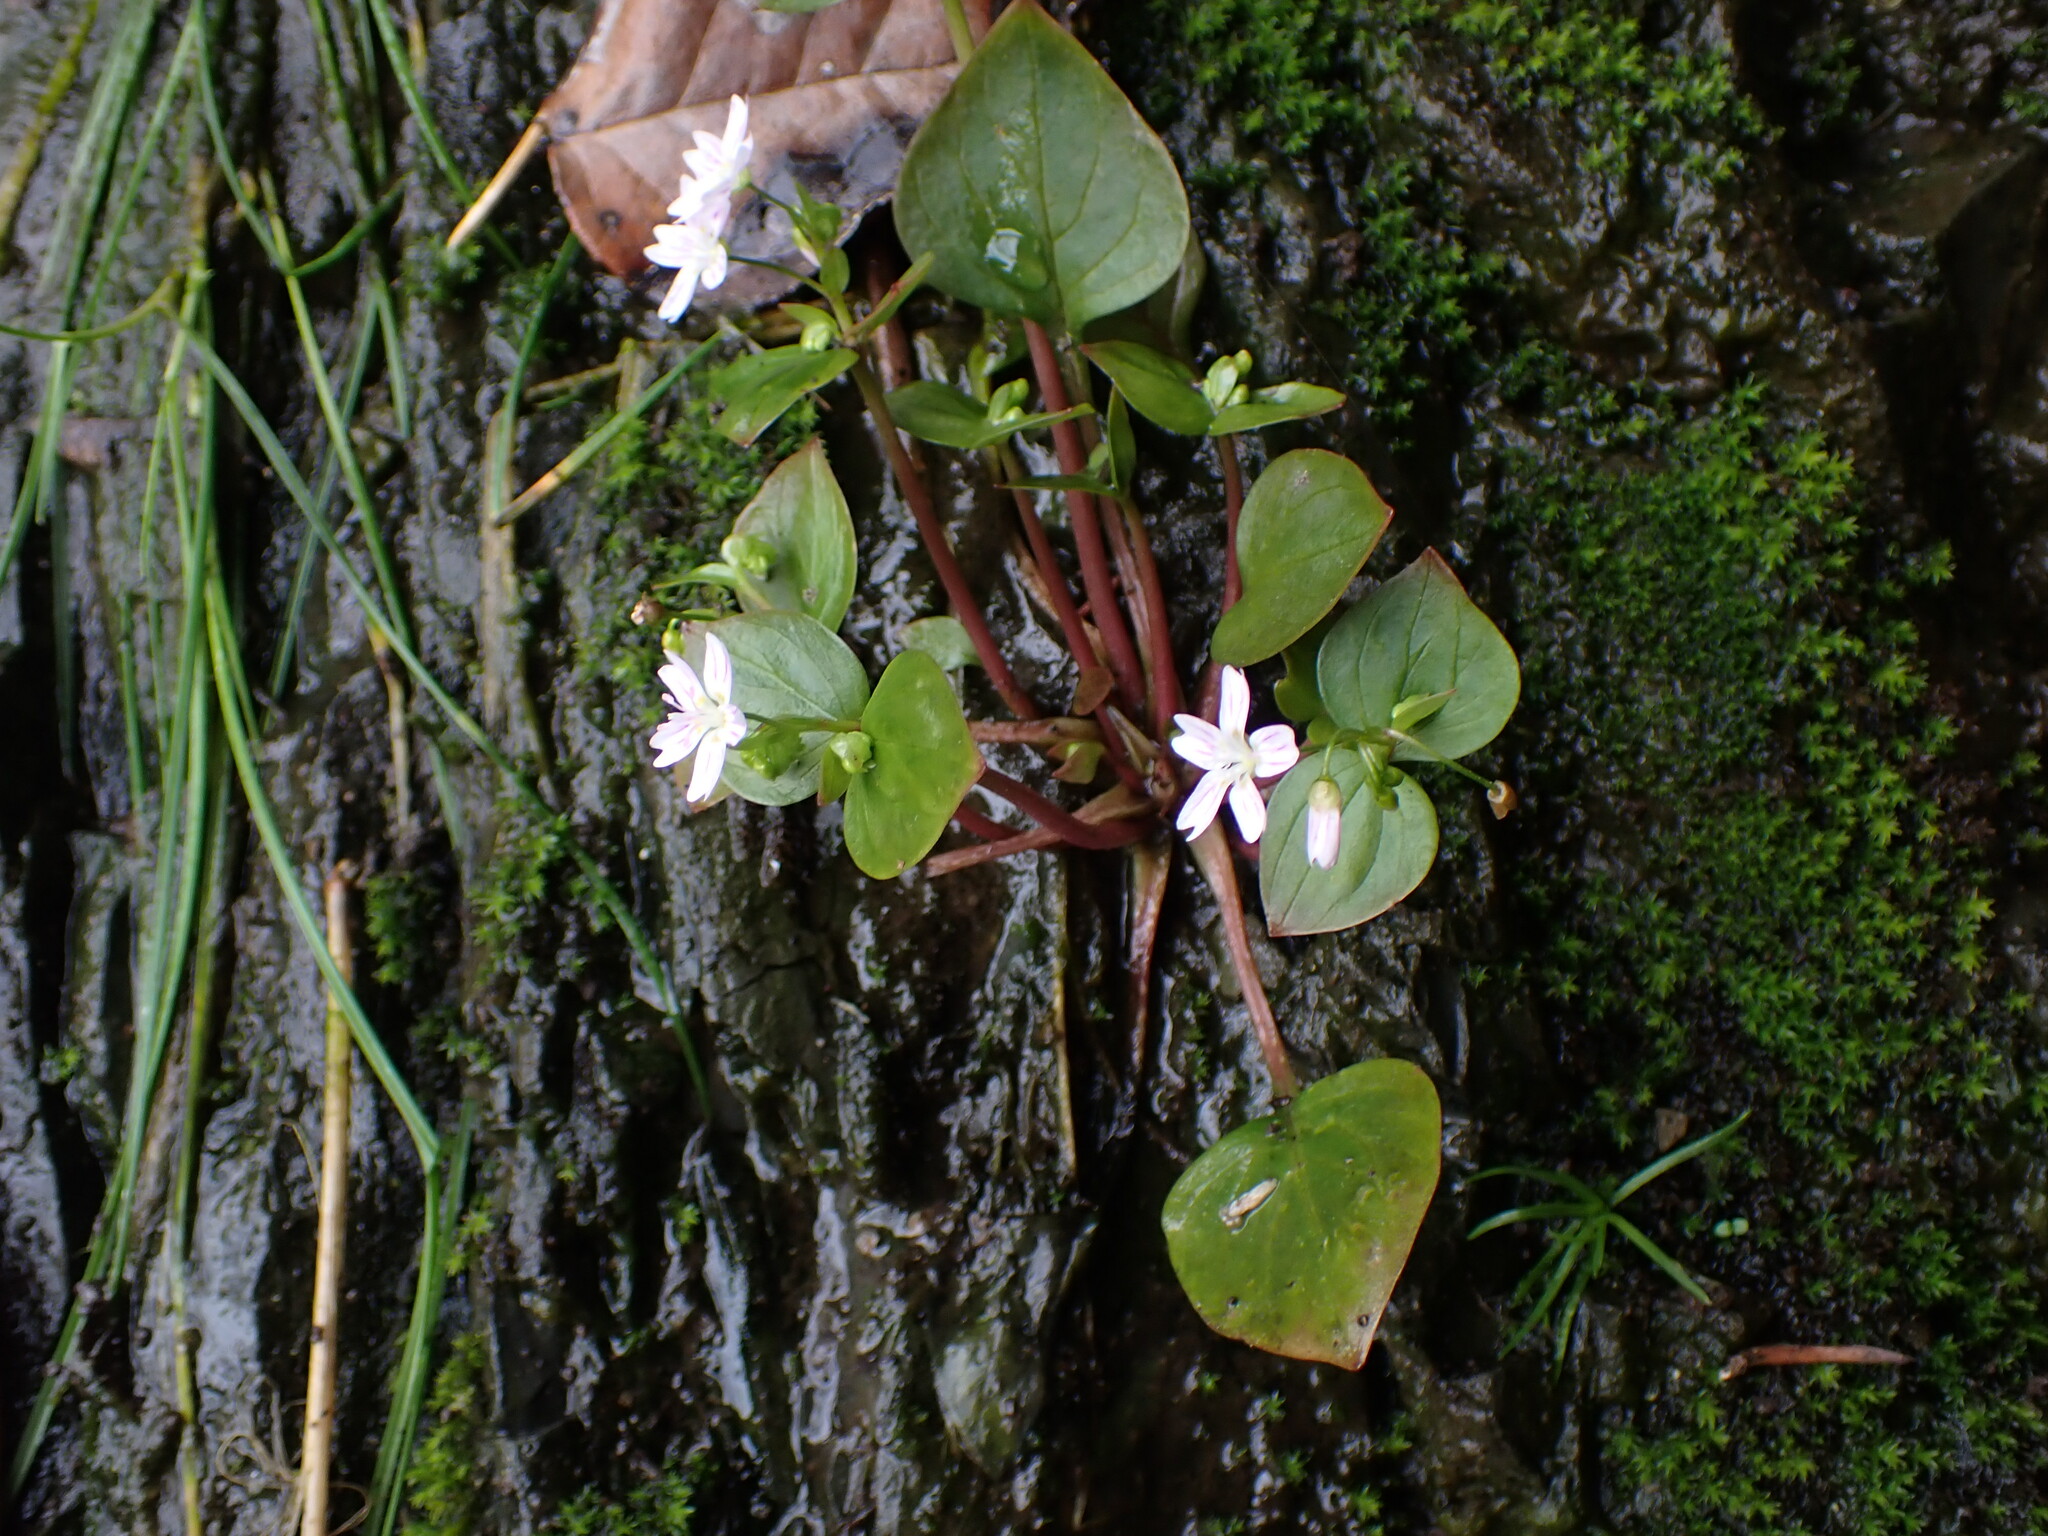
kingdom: Plantae
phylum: Tracheophyta
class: Magnoliopsida
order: Caryophyllales
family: Montiaceae
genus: Claytonia
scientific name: Claytonia sibirica
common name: Pink purslane
